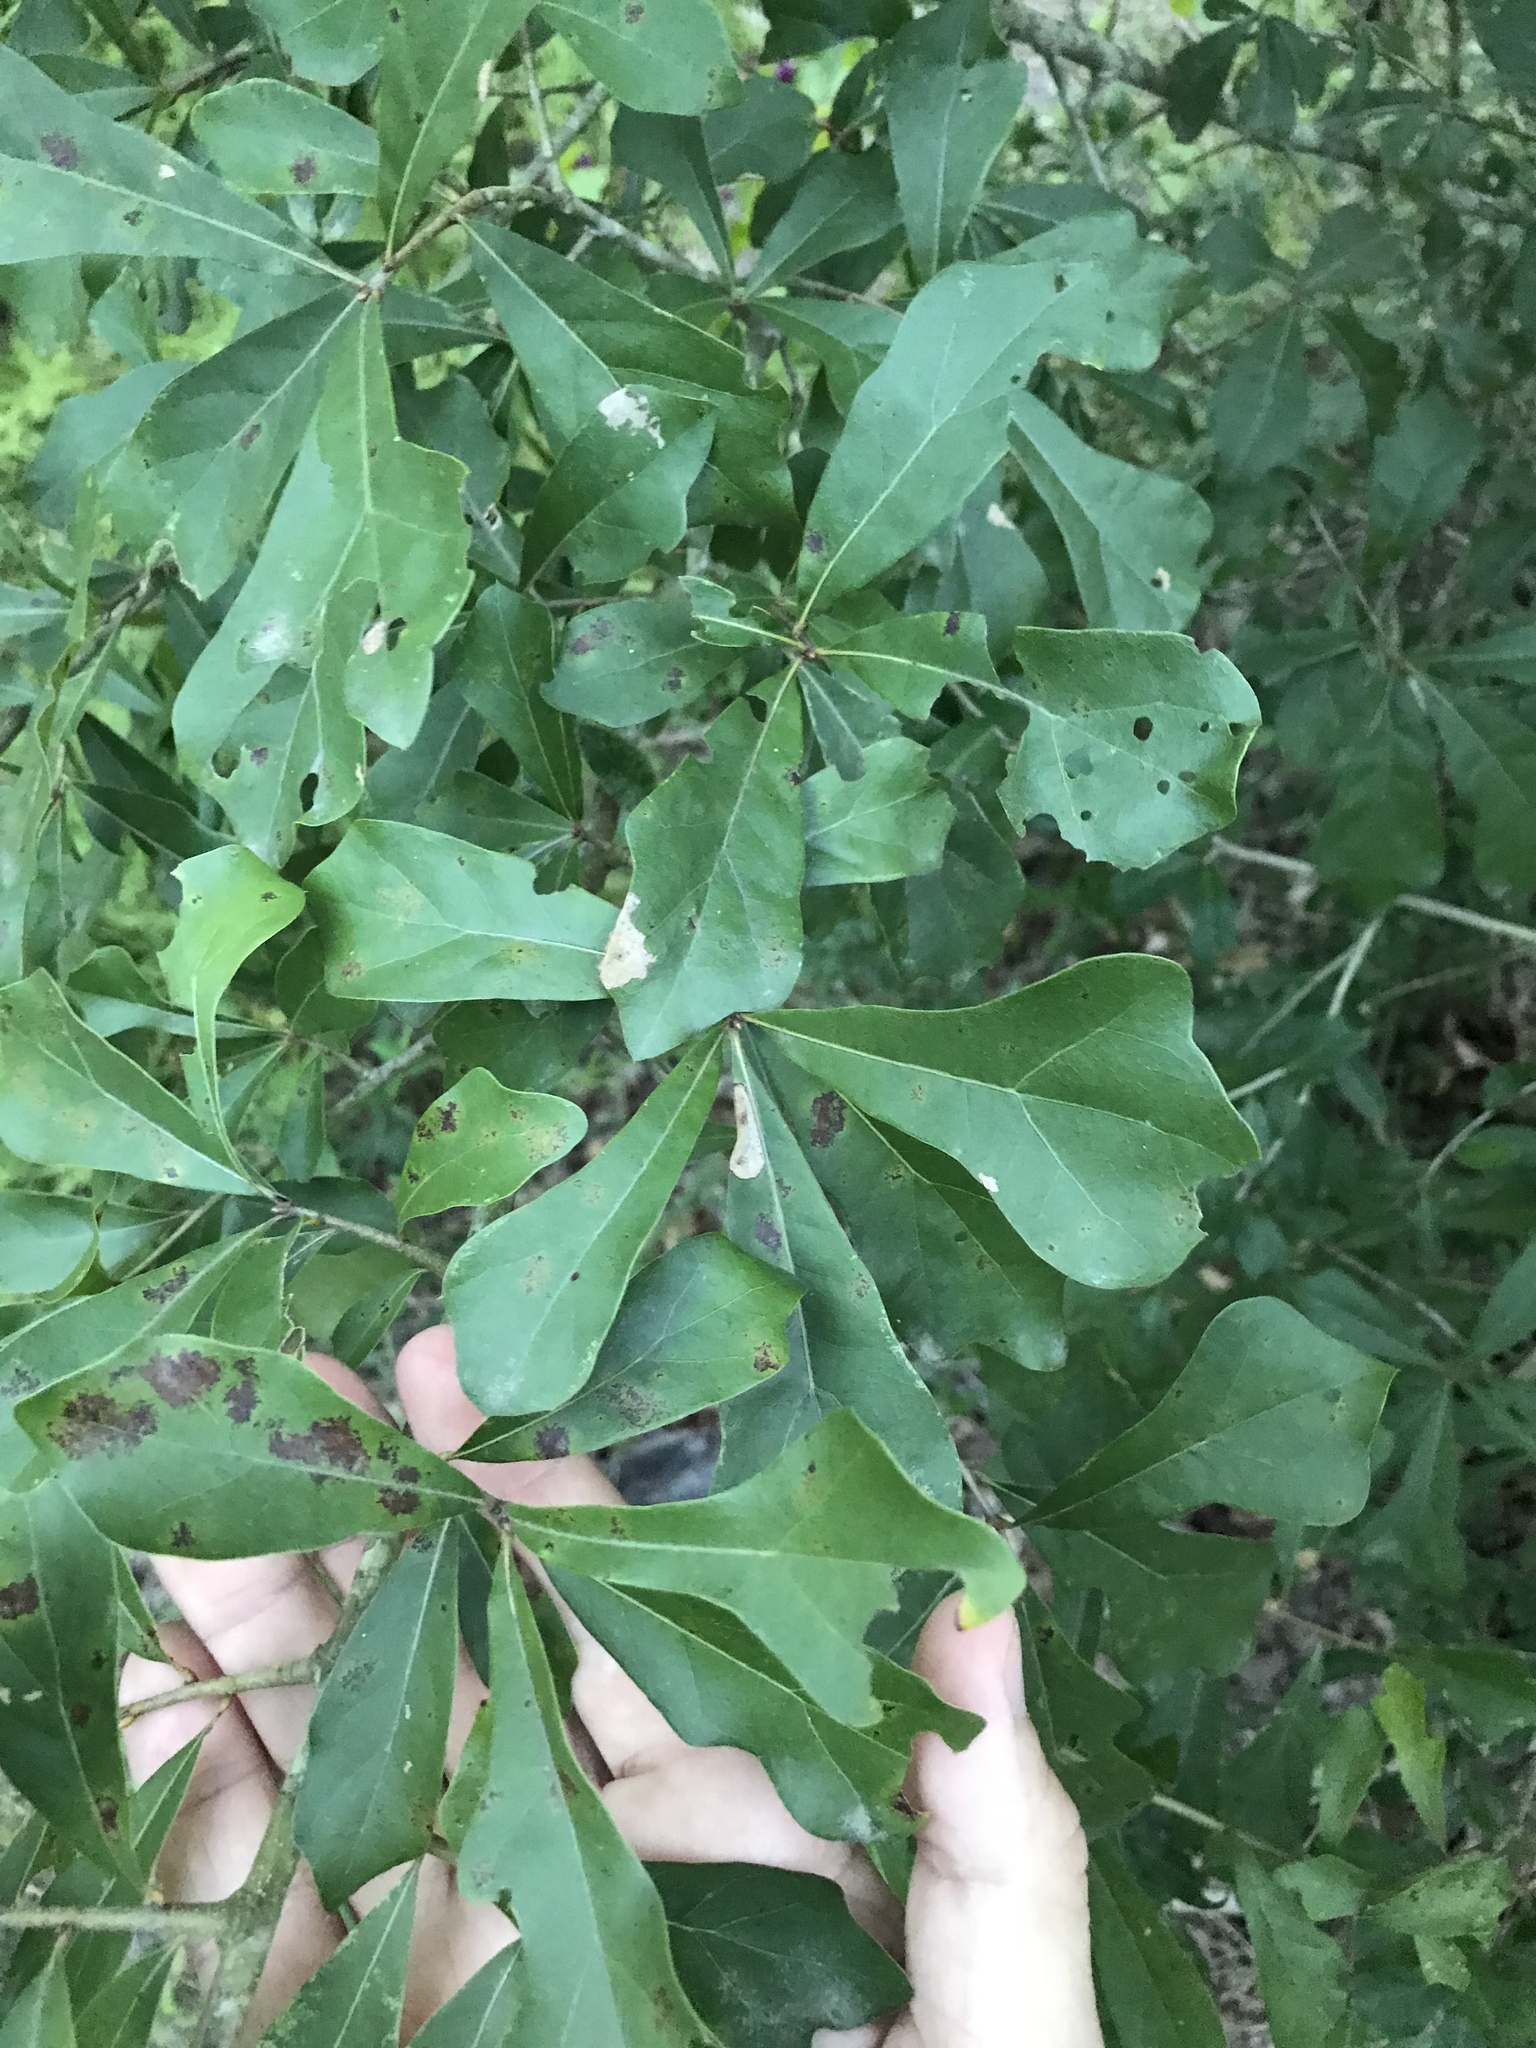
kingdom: Plantae
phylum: Tracheophyta
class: Magnoliopsida
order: Fagales
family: Fagaceae
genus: Quercus
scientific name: Quercus nigra
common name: Water oak
